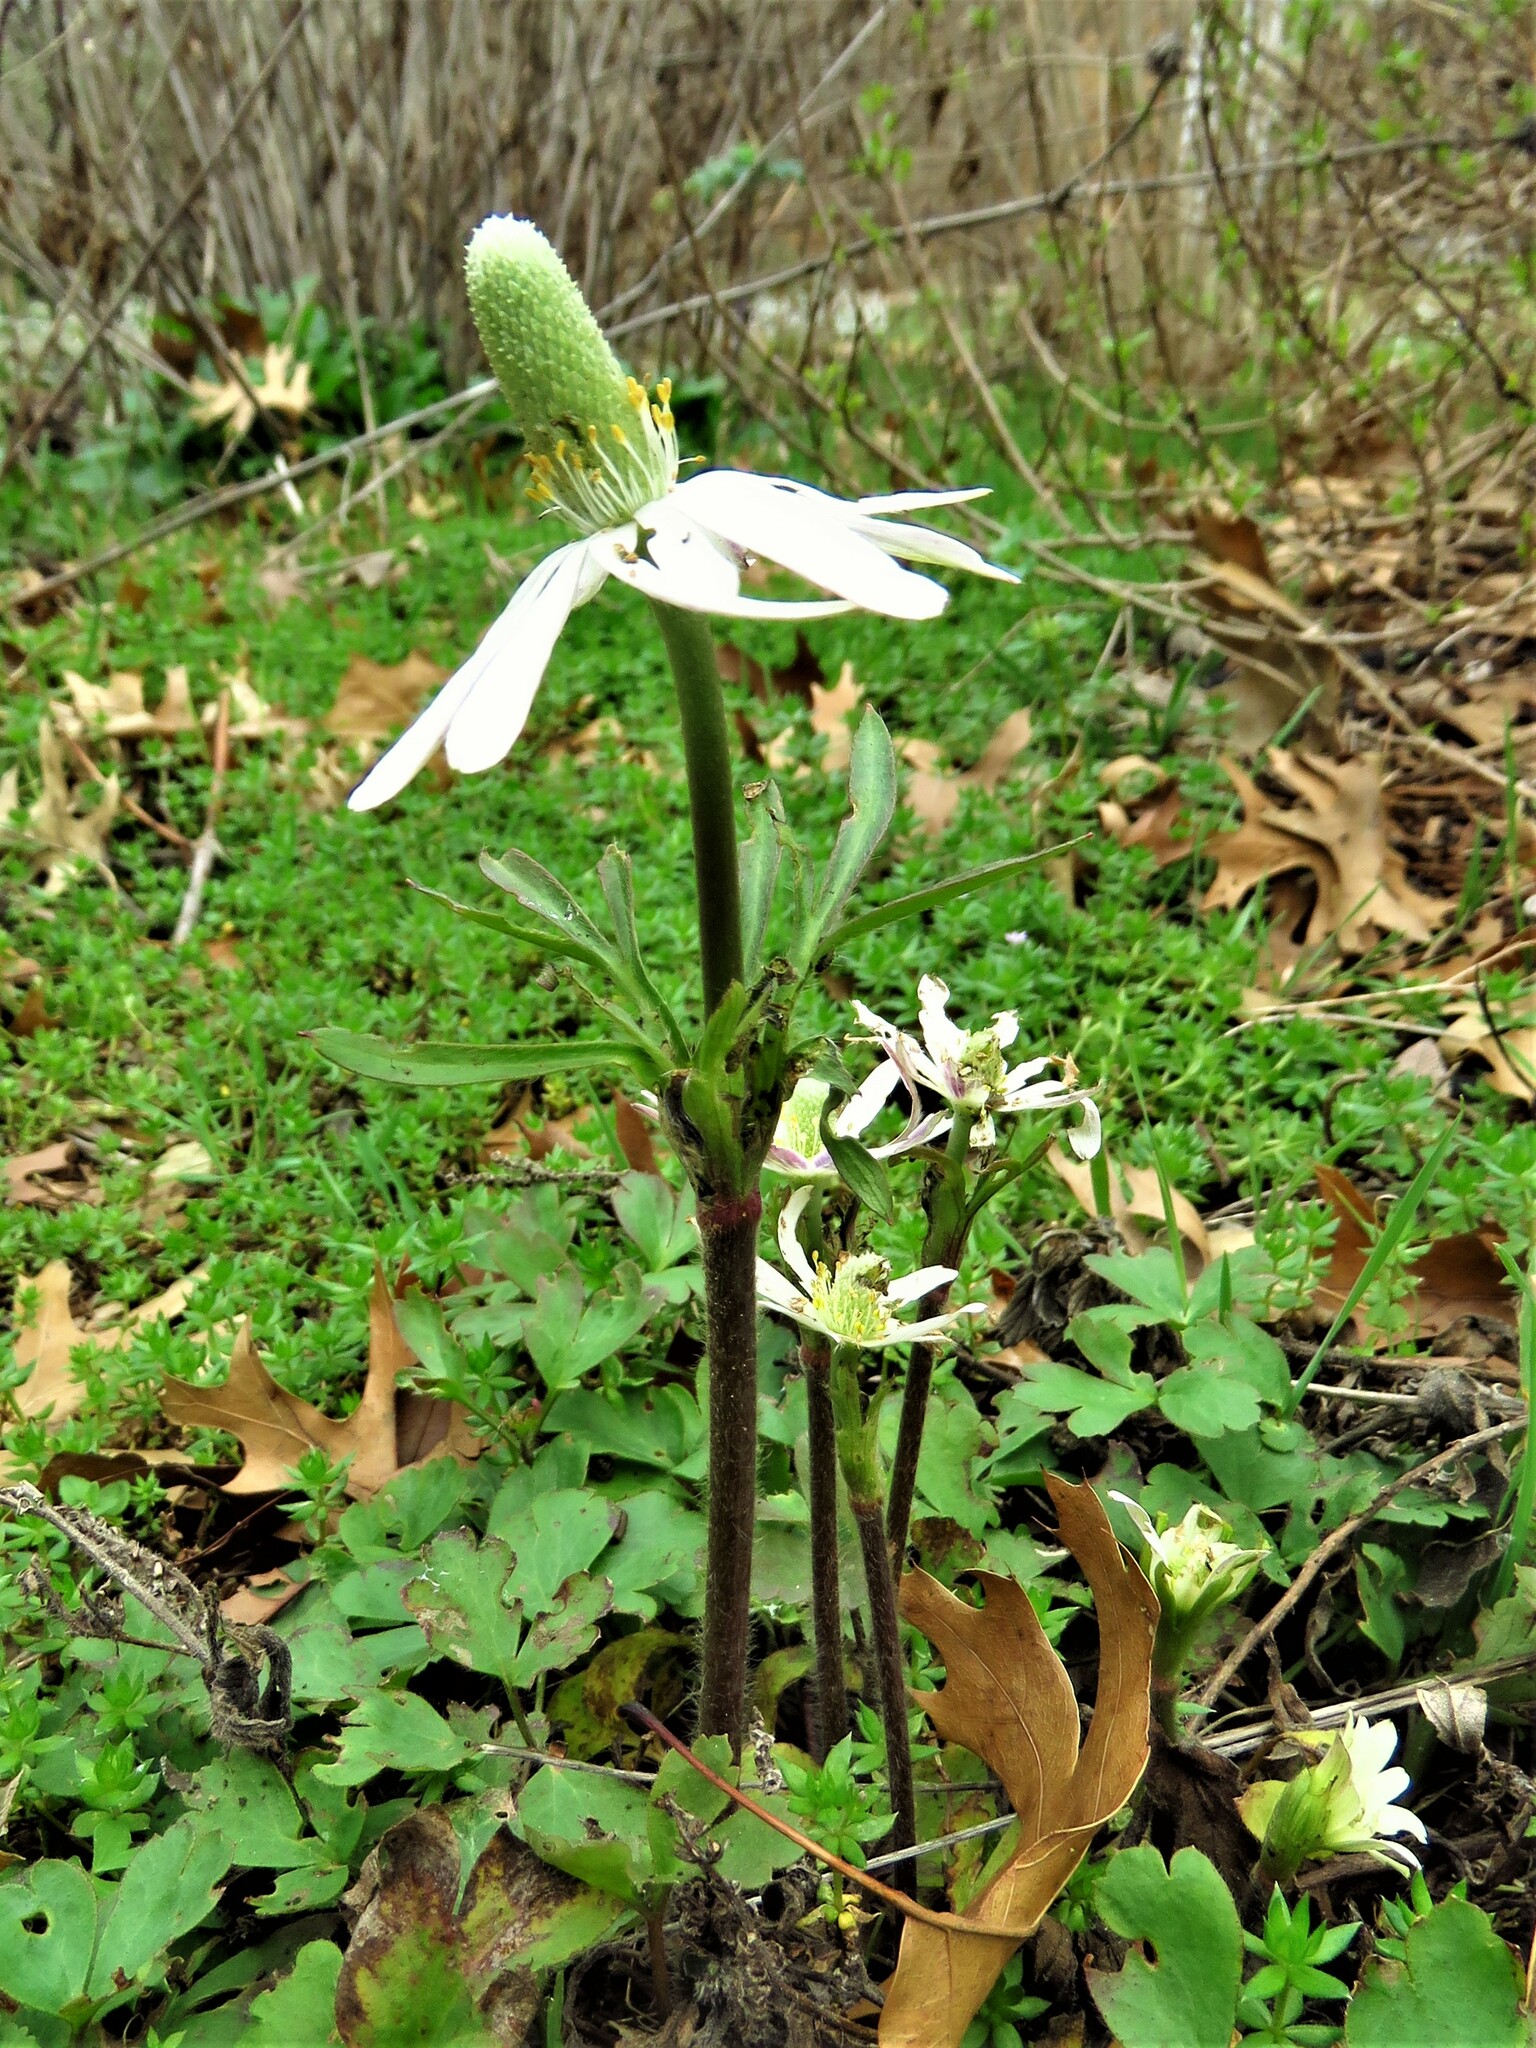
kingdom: Plantae
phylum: Tracheophyta
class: Magnoliopsida
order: Ranunculales
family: Ranunculaceae
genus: Anemone
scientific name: Anemone berlandieri
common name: Ten-petal anemone
